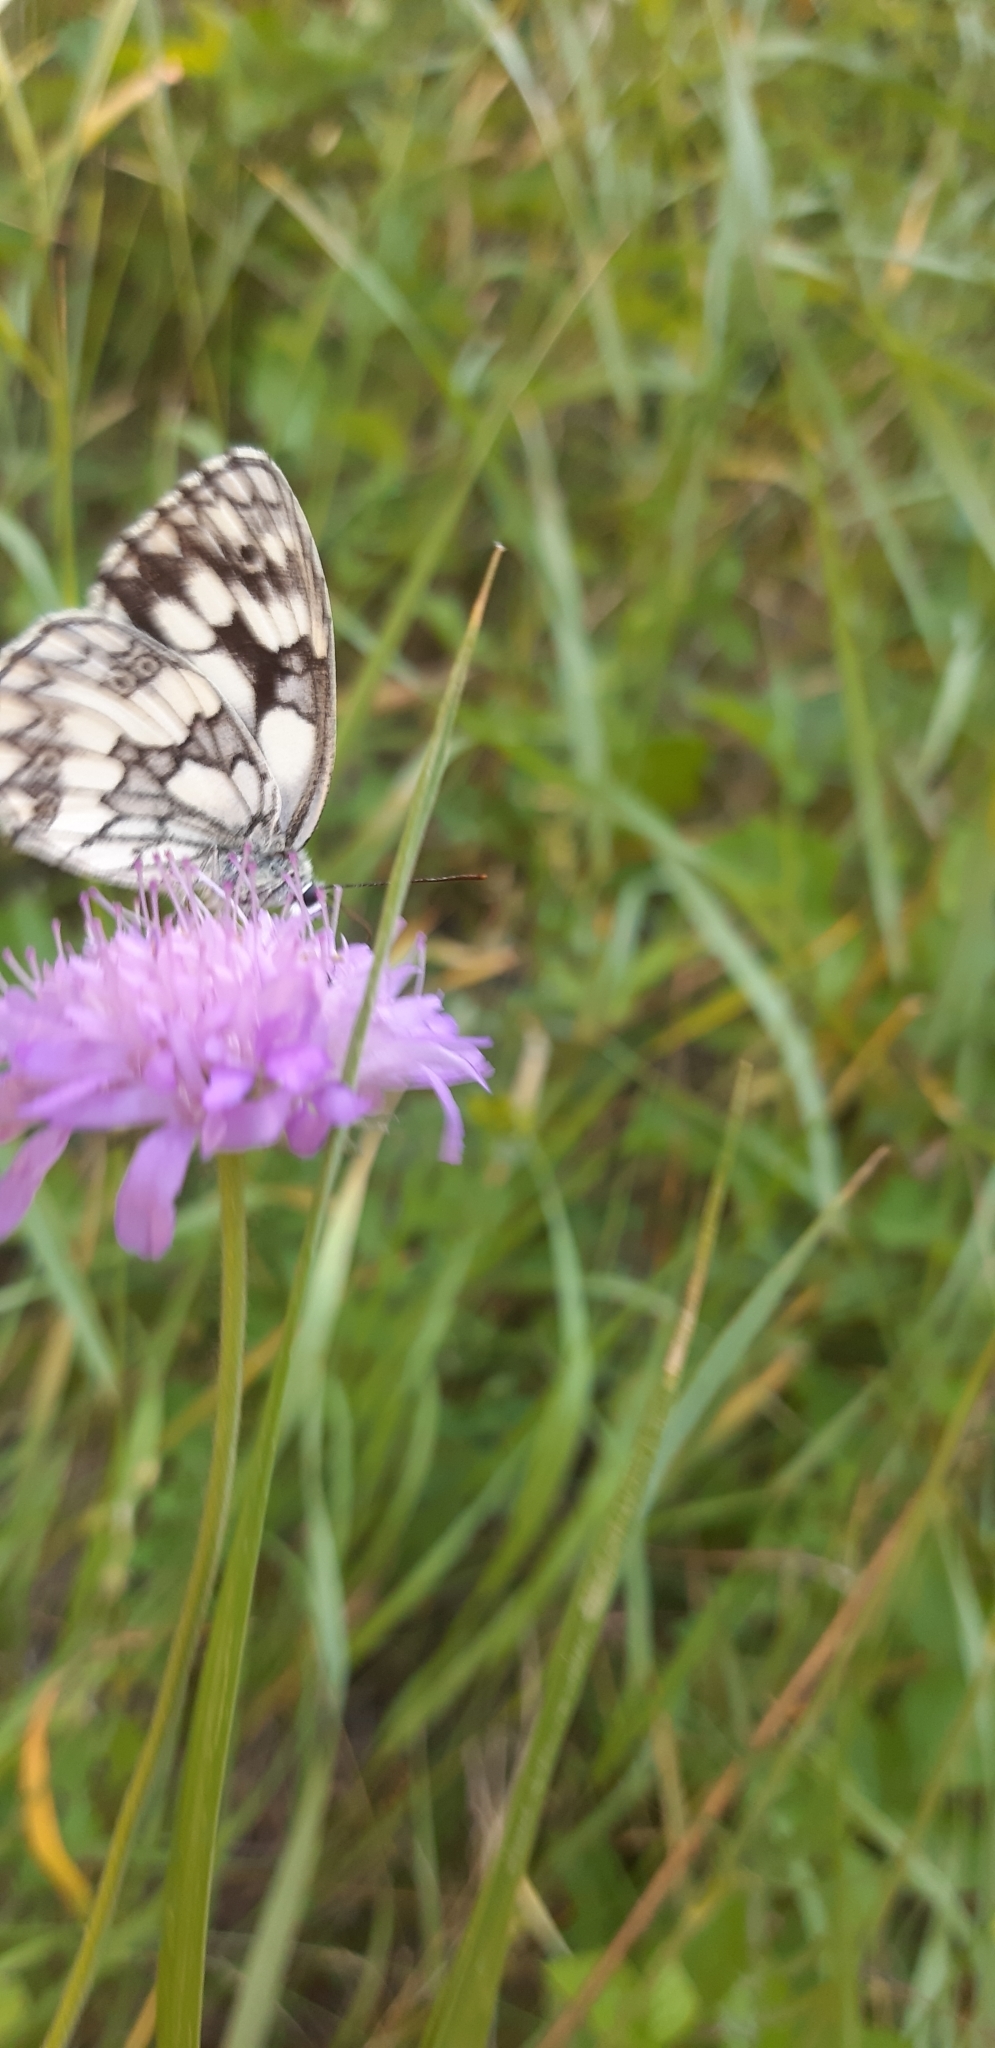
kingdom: Animalia
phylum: Arthropoda
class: Insecta
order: Lepidoptera
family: Nymphalidae
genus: Melanargia
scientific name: Melanargia galathea
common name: Marbled white
